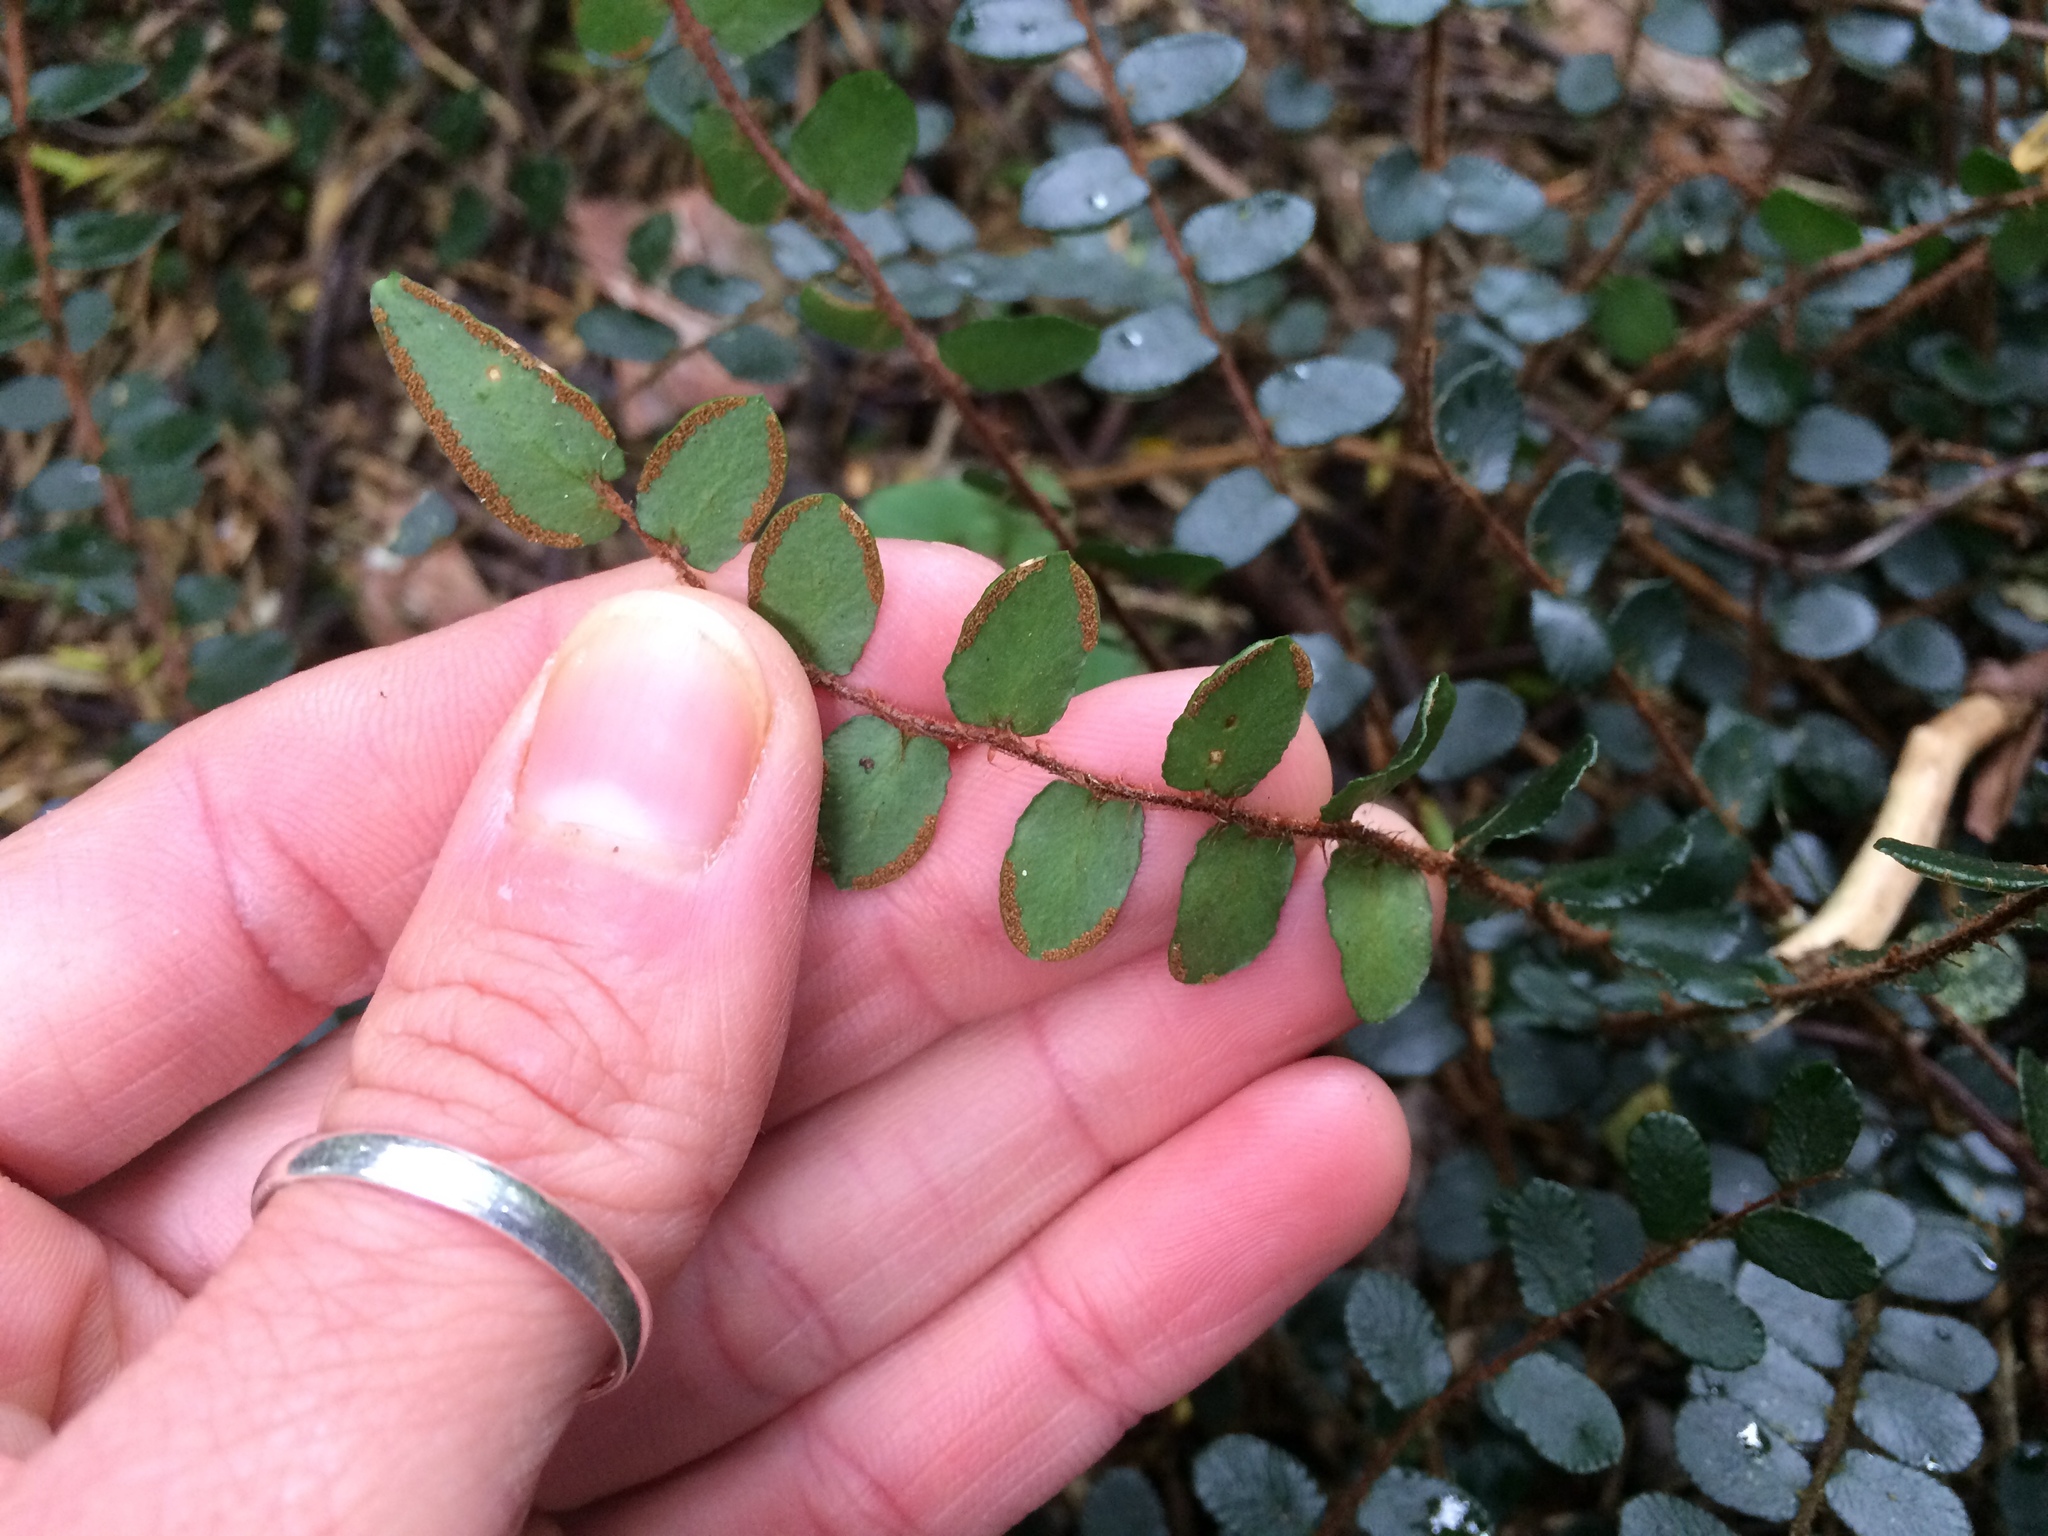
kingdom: Plantae
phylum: Tracheophyta
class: Polypodiopsida
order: Polypodiales
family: Pteridaceae
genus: Pellaea
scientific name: Pellaea rotundifolia
